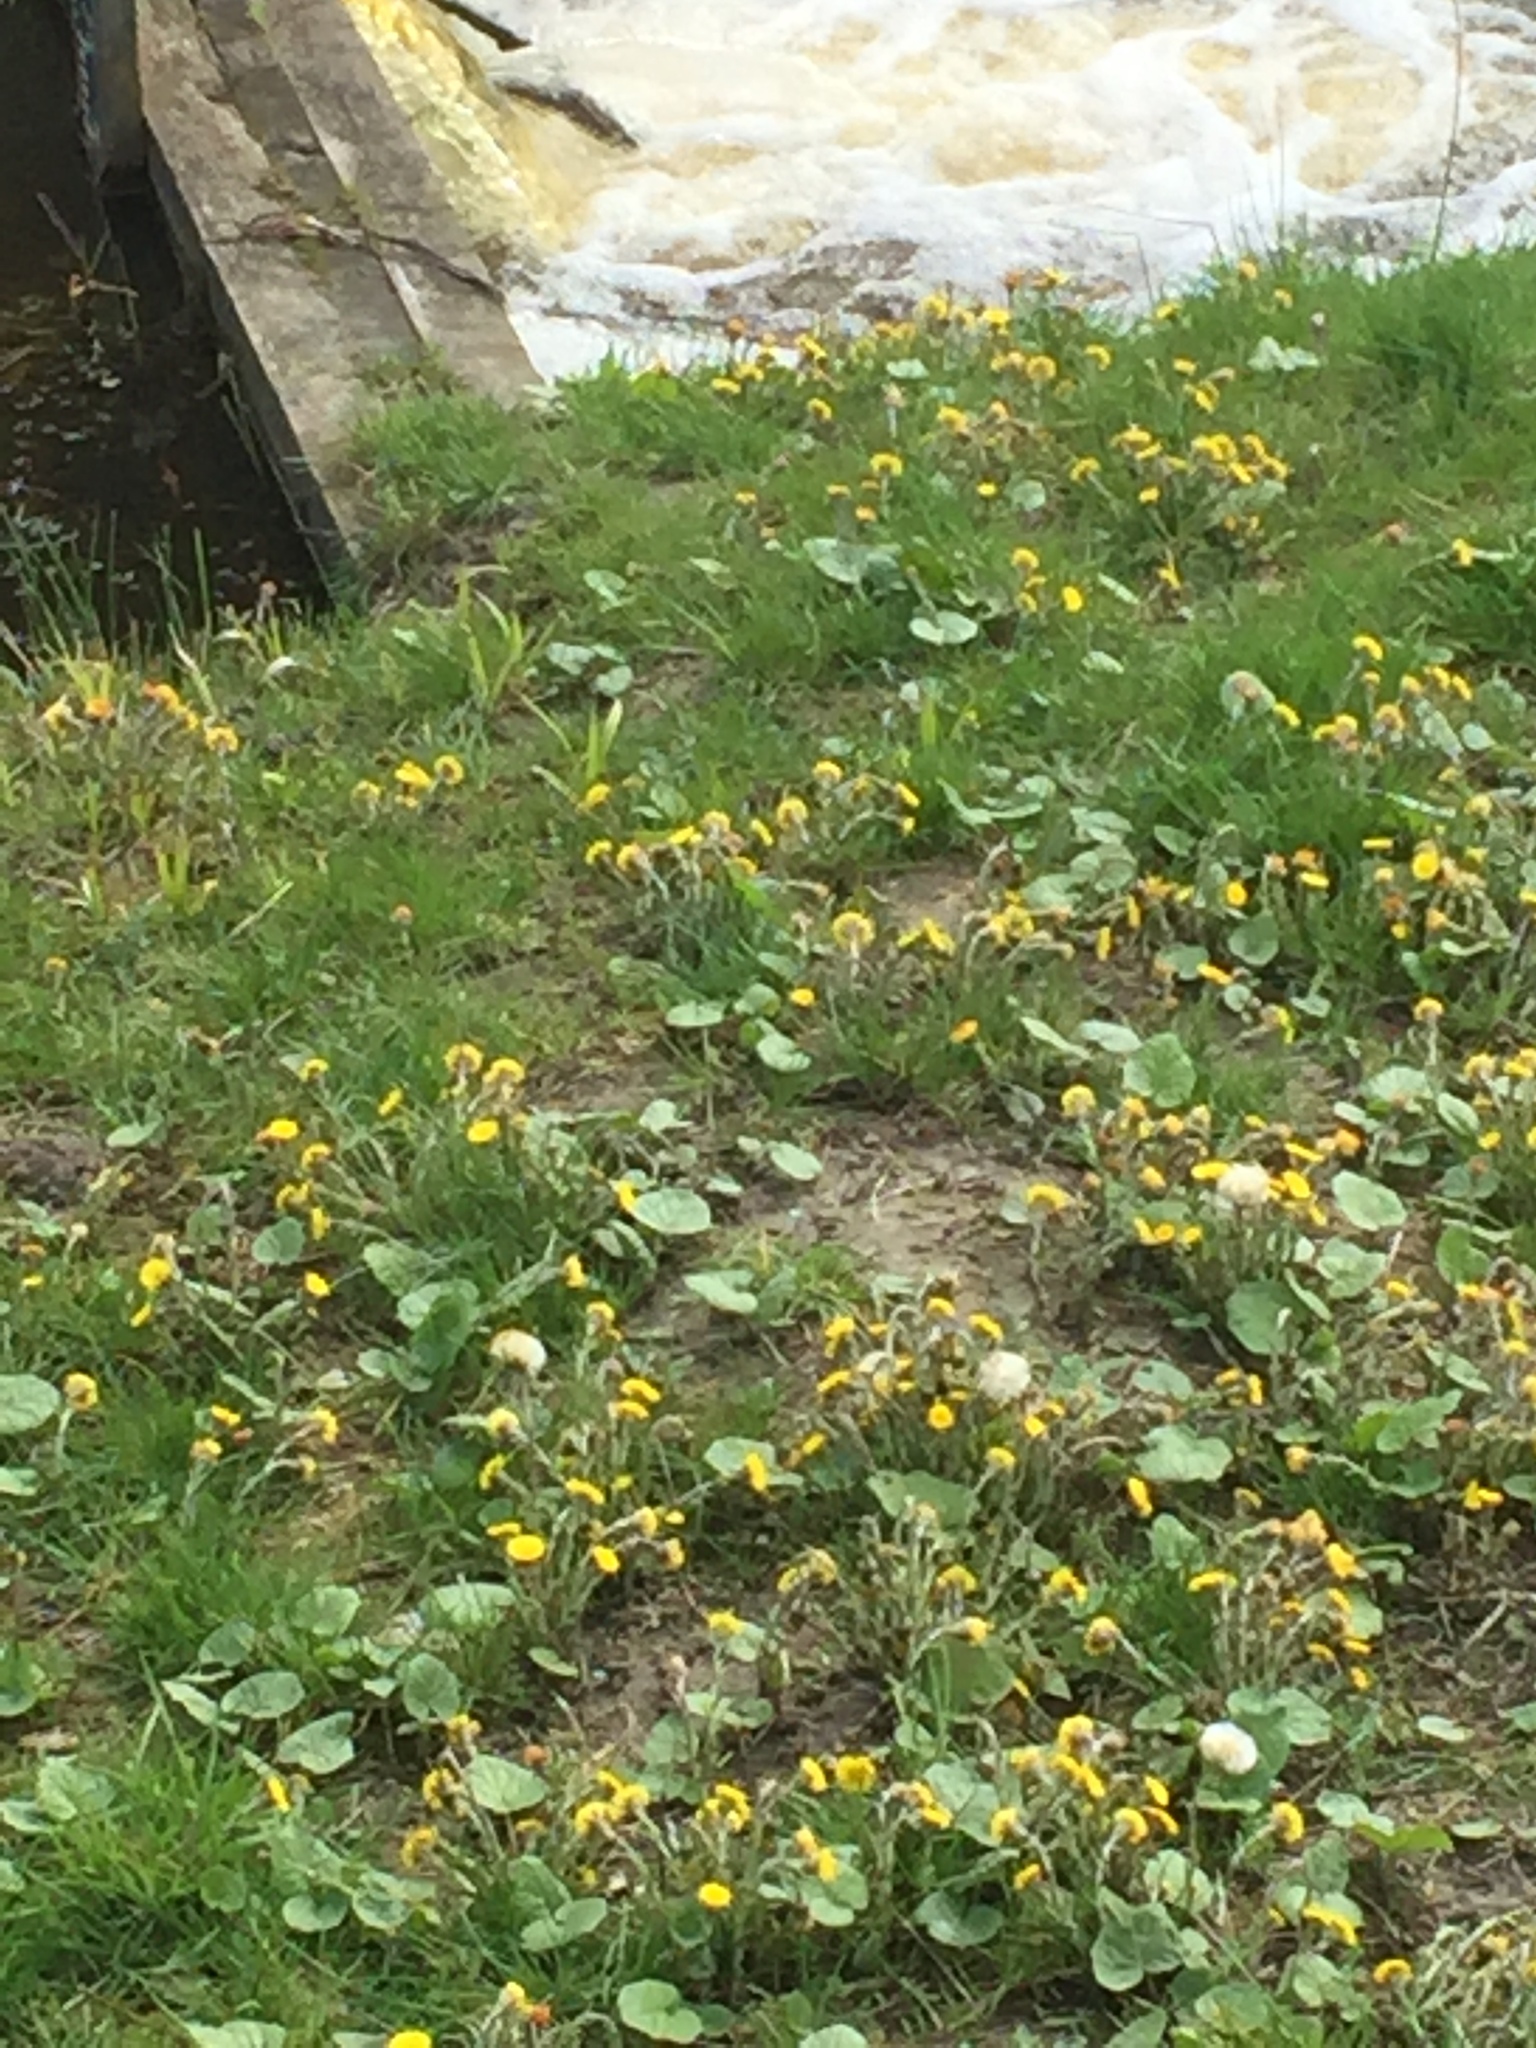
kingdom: Plantae
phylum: Tracheophyta
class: Magnoliopsida
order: Asterales
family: Asteraceae
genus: Tussilago
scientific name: Tussilago farfara
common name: Coltsfoot
